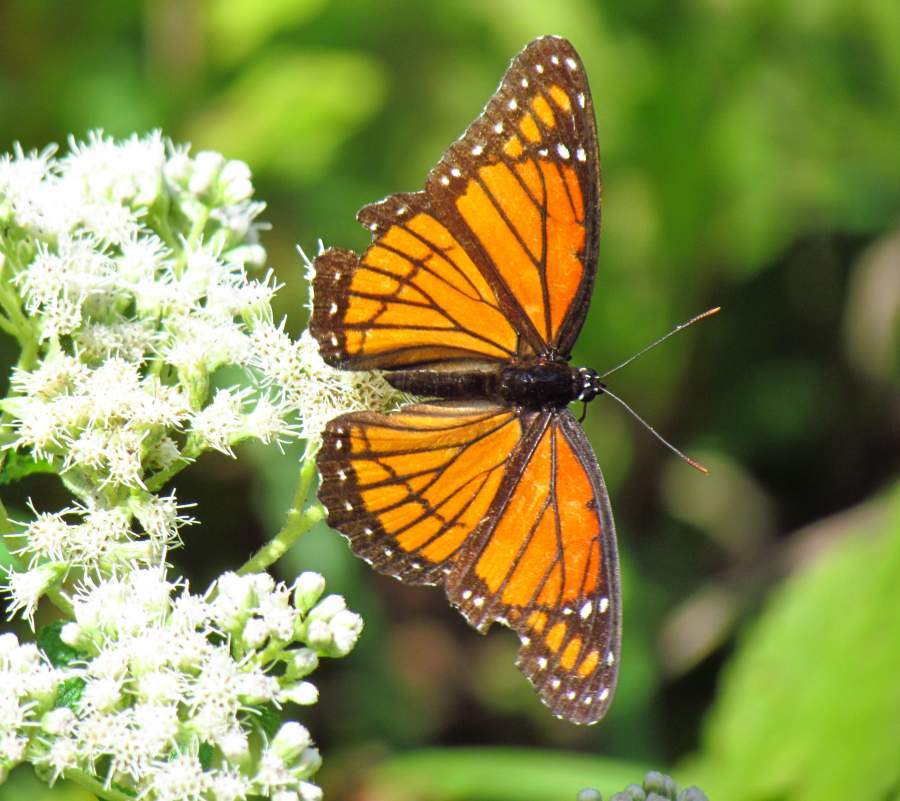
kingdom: Animalia
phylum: Arthropoda
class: Insecta
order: Lepidoptera
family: Nymphalidae
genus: Limenitis
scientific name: Limenitis archippus
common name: Viceroy
